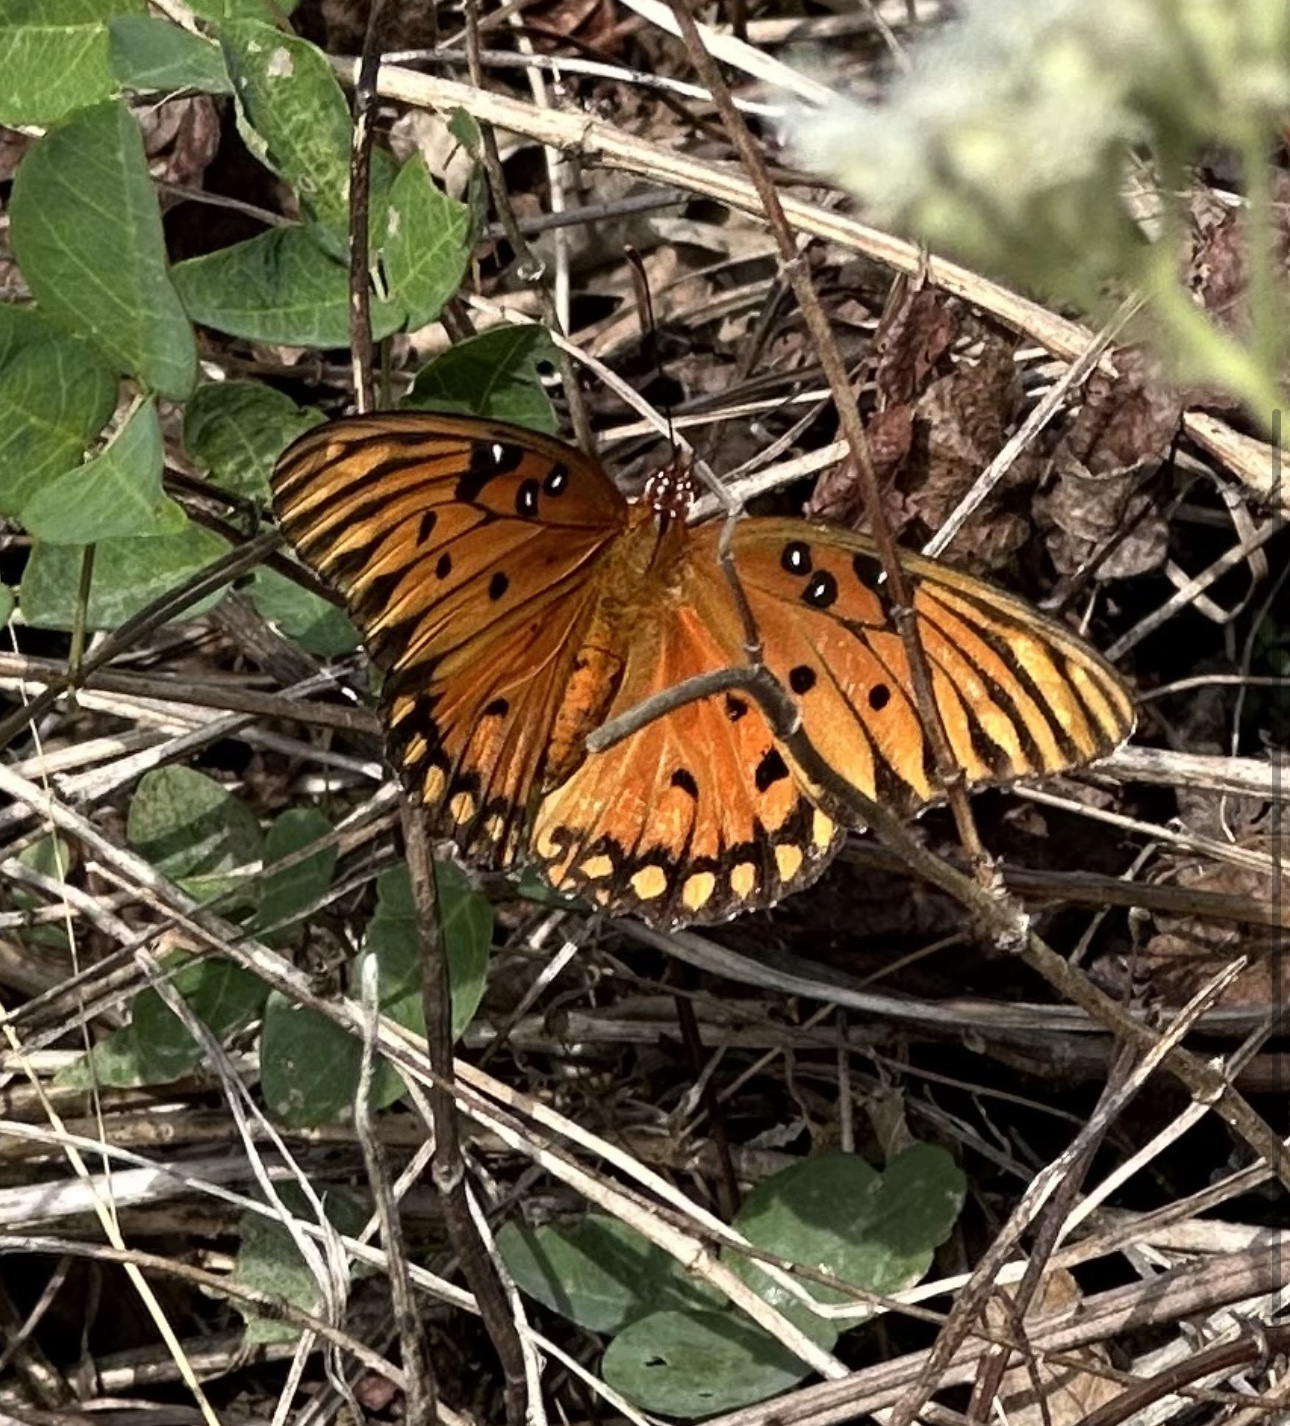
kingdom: Animalia
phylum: Arthropoda
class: Insecta
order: Lepidoptera
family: Nymphalidae
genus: Dione
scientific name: Dione vanillae
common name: Gulf fritillary
